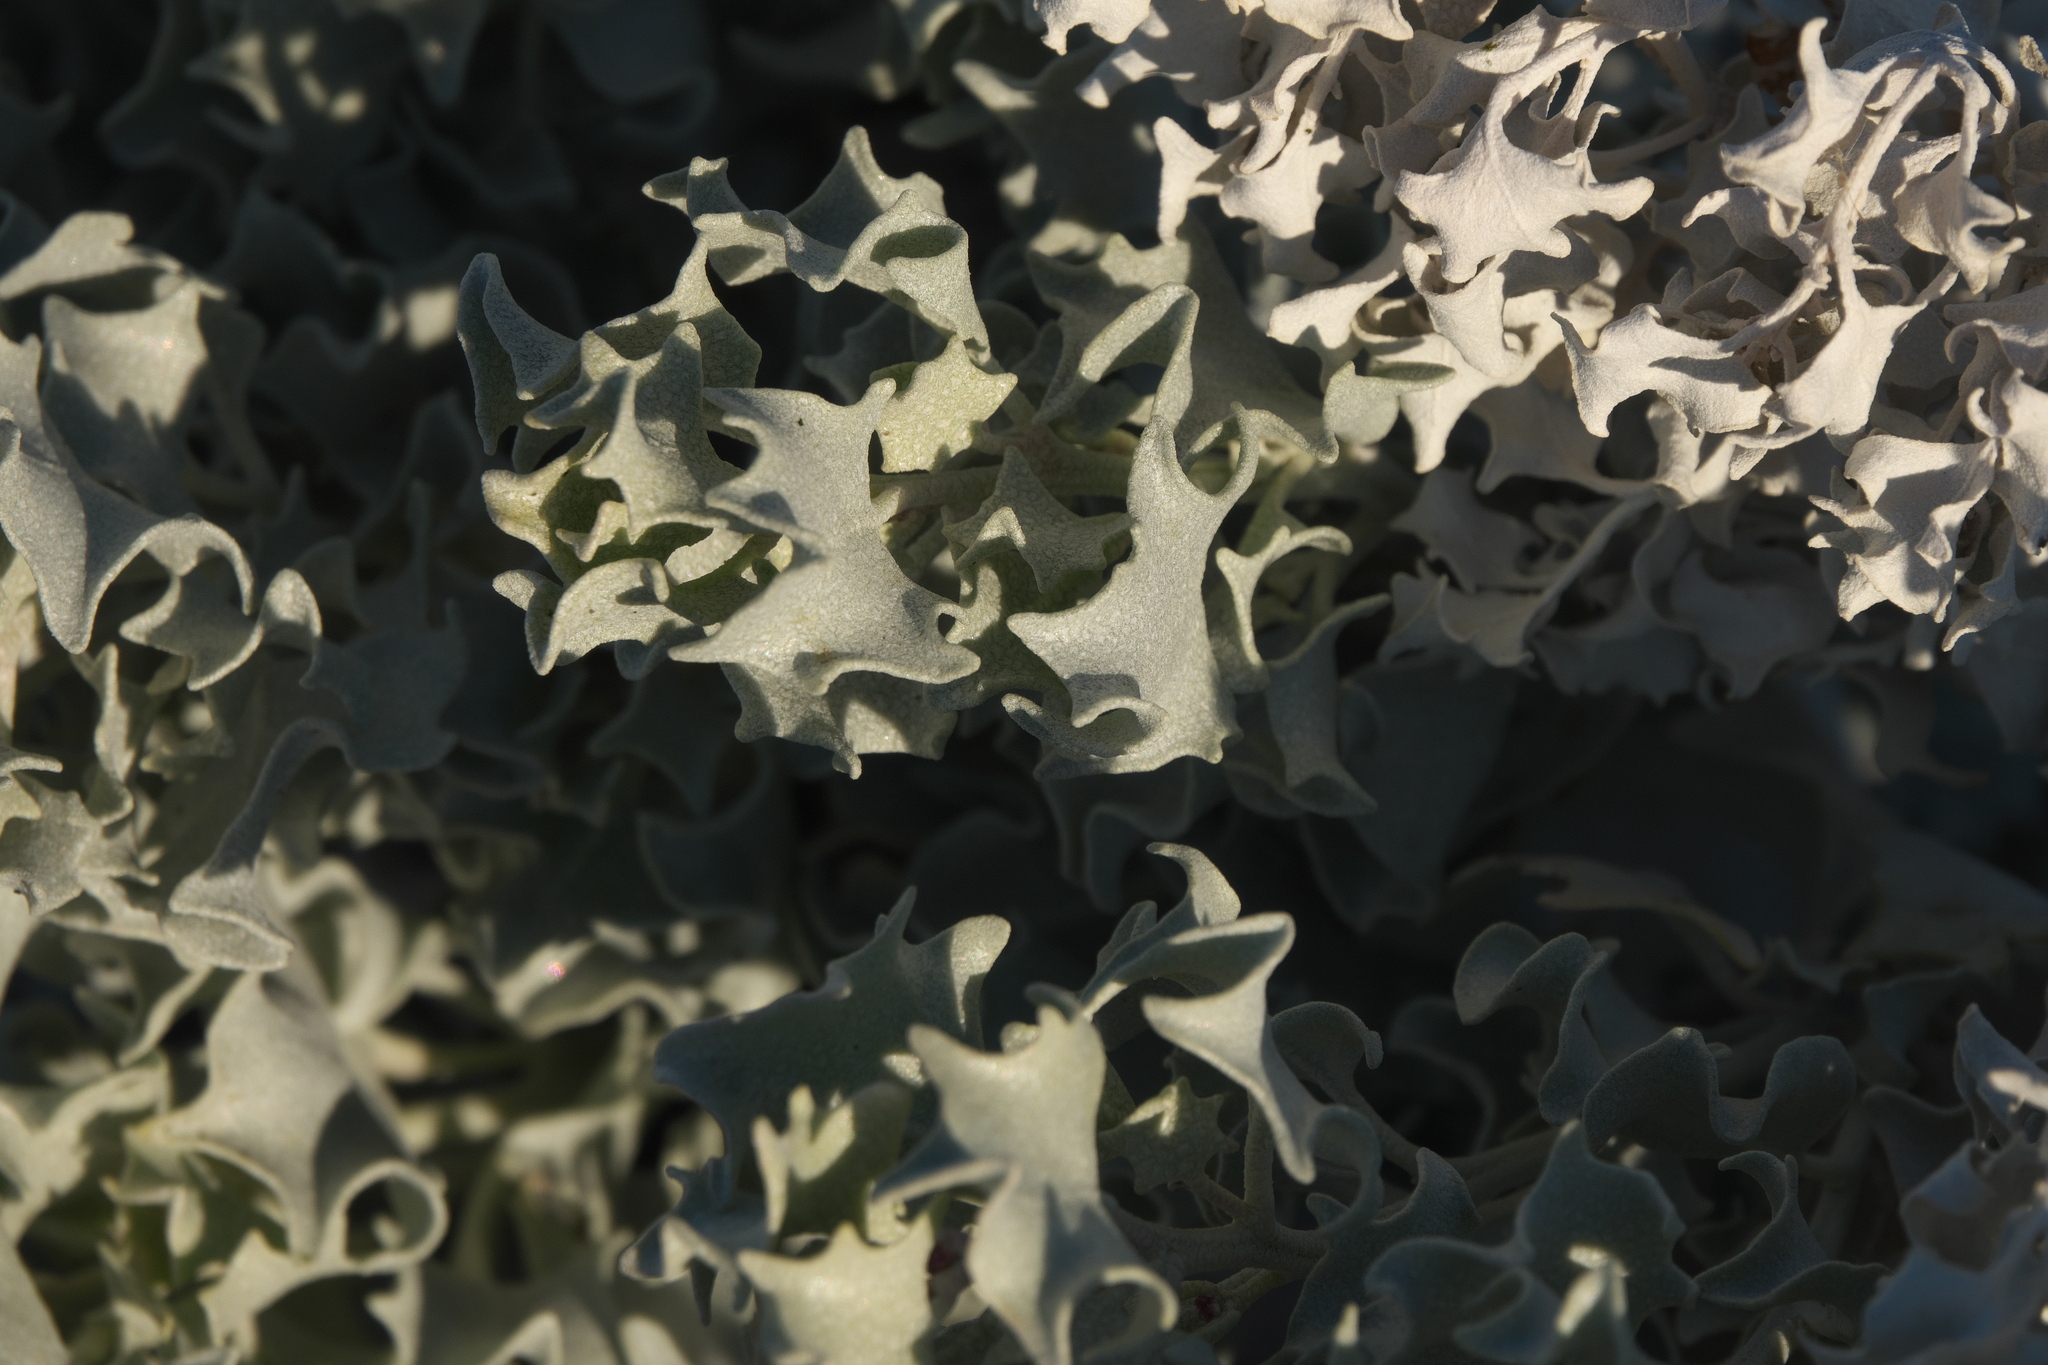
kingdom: Plantae
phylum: Tracheophyta
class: Magnoliopsida
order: Caryophyllales
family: Amaranthaceae
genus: Atriplex
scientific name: Atriplex hymenelytra
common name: Desert-holly
